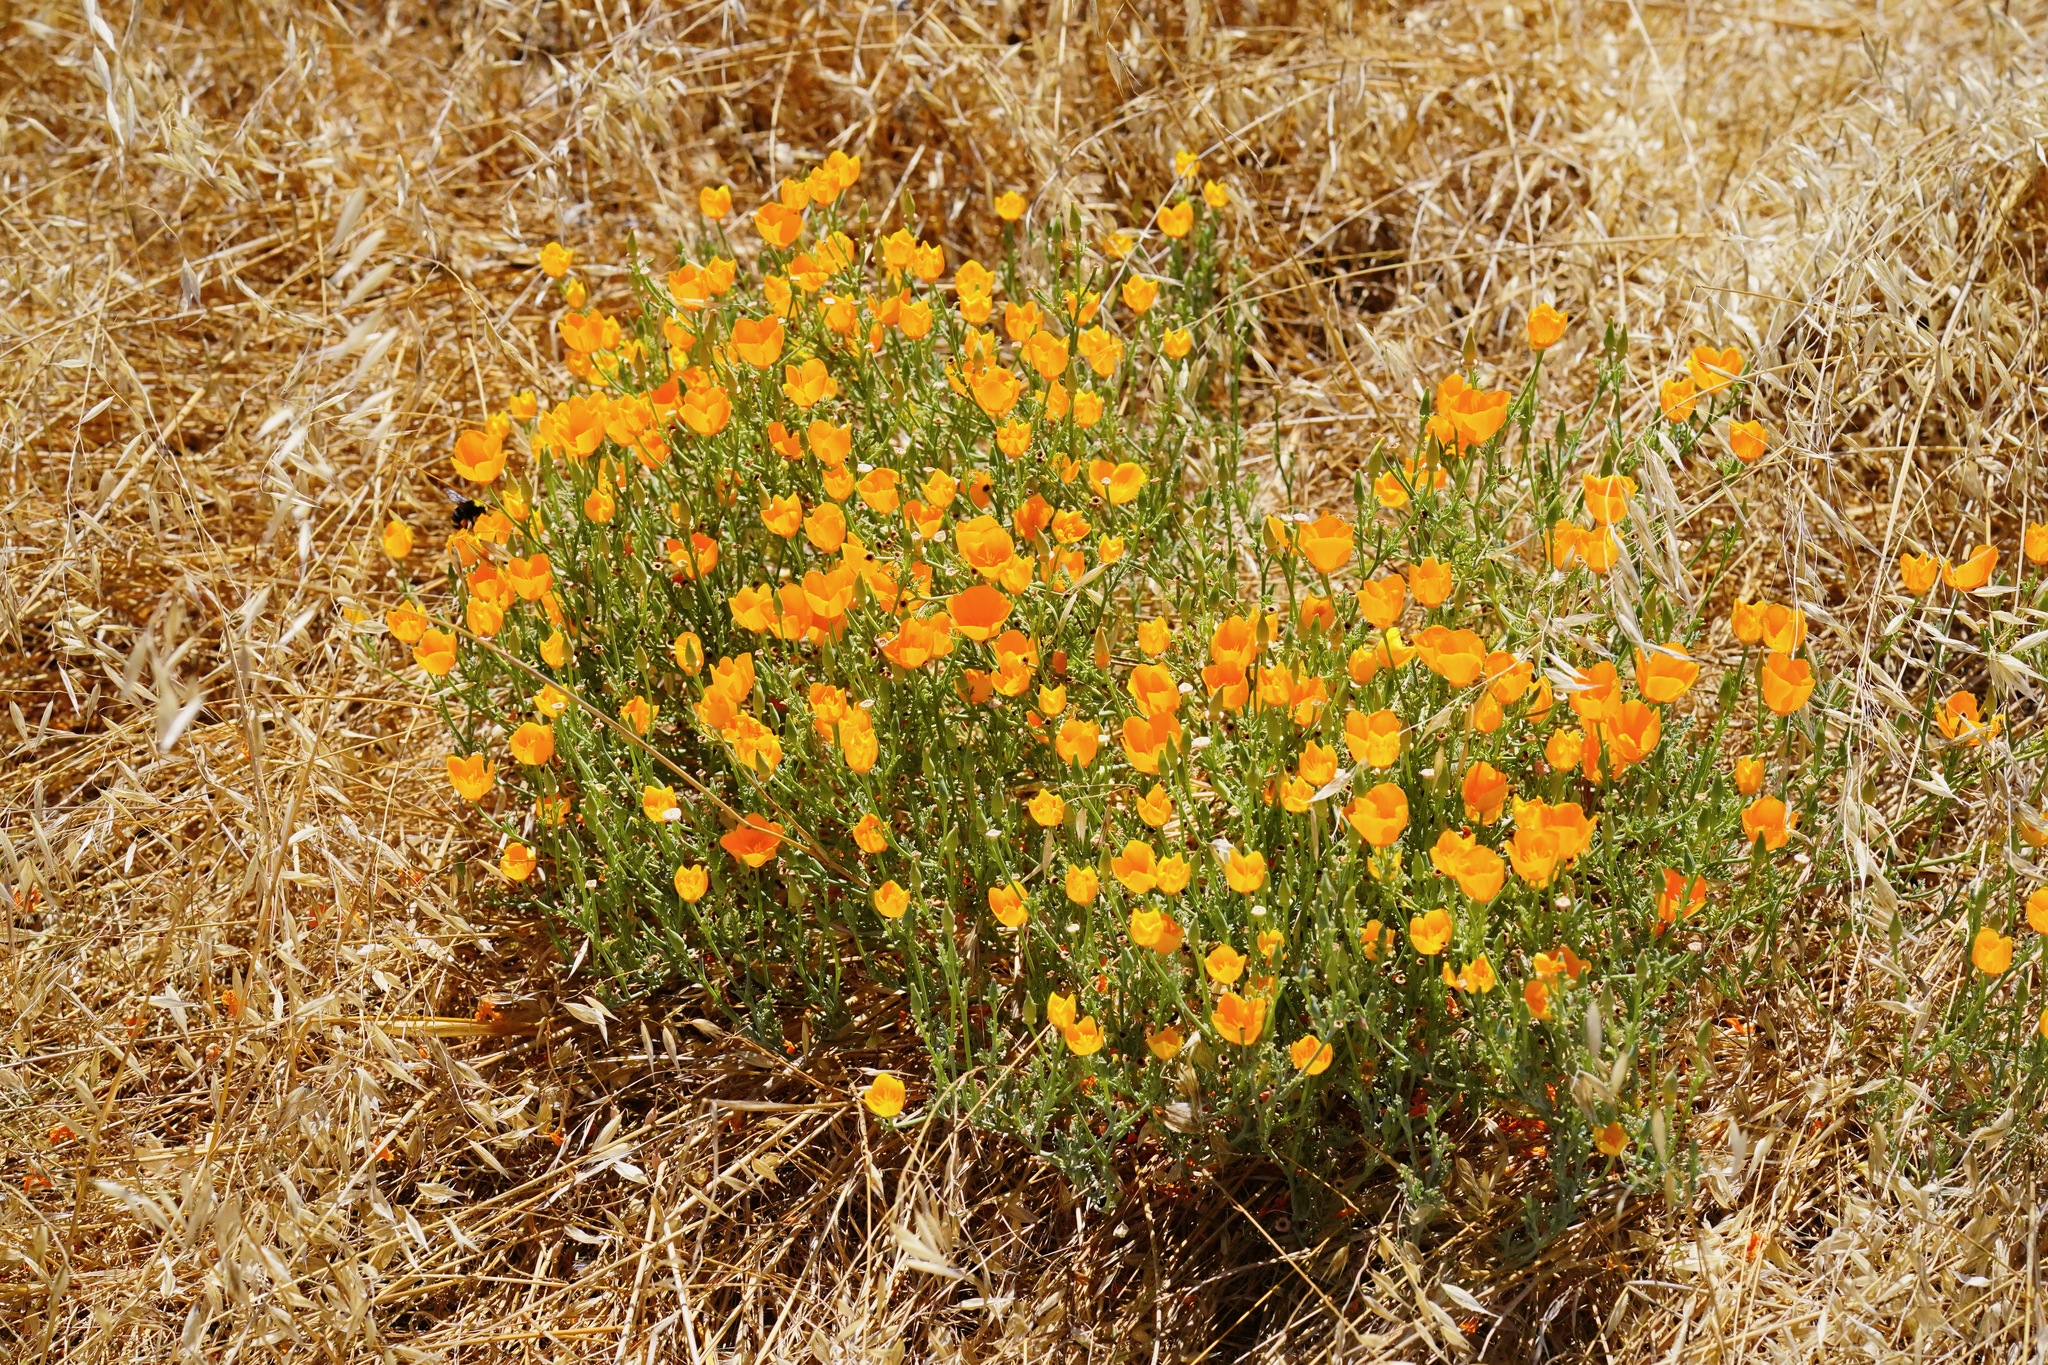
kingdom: Plantae
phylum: Tracheophyta
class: Magnoliopsida
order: Ranunculales
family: Papaveraceae
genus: Eschscholzia
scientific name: Eschscholzia californica
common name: California poppy
